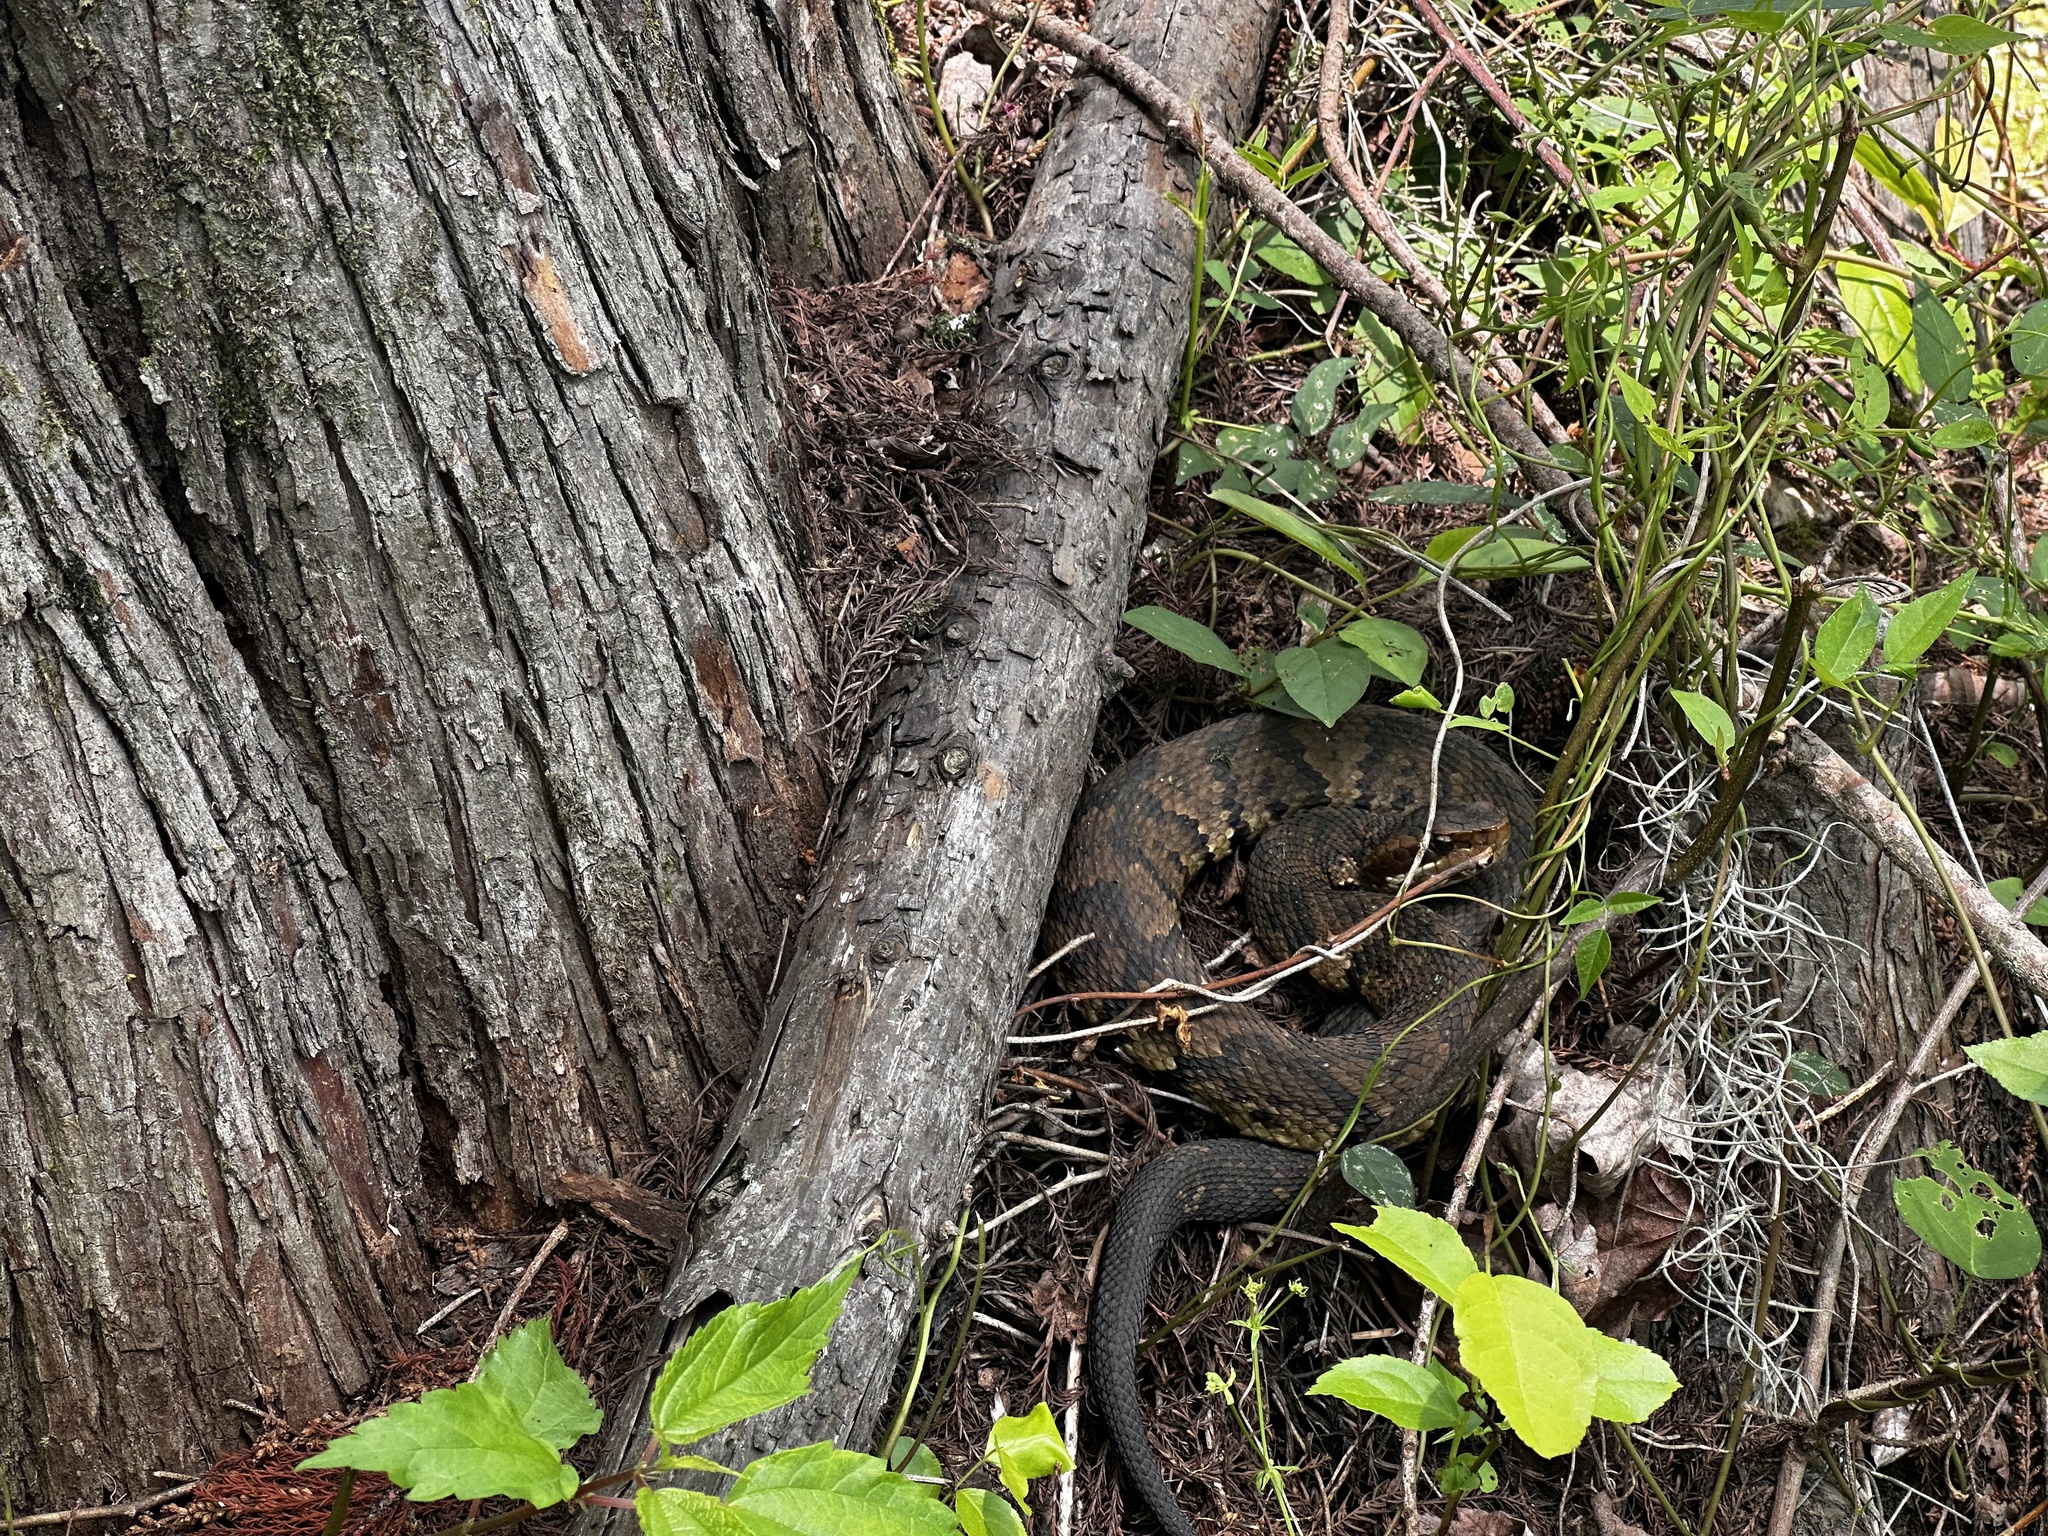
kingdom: Animalia
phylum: Chordata
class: Squamata
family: Viperidae
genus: Agkistrodon
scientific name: Agkistrodon piscivorus
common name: Cottonmouth
